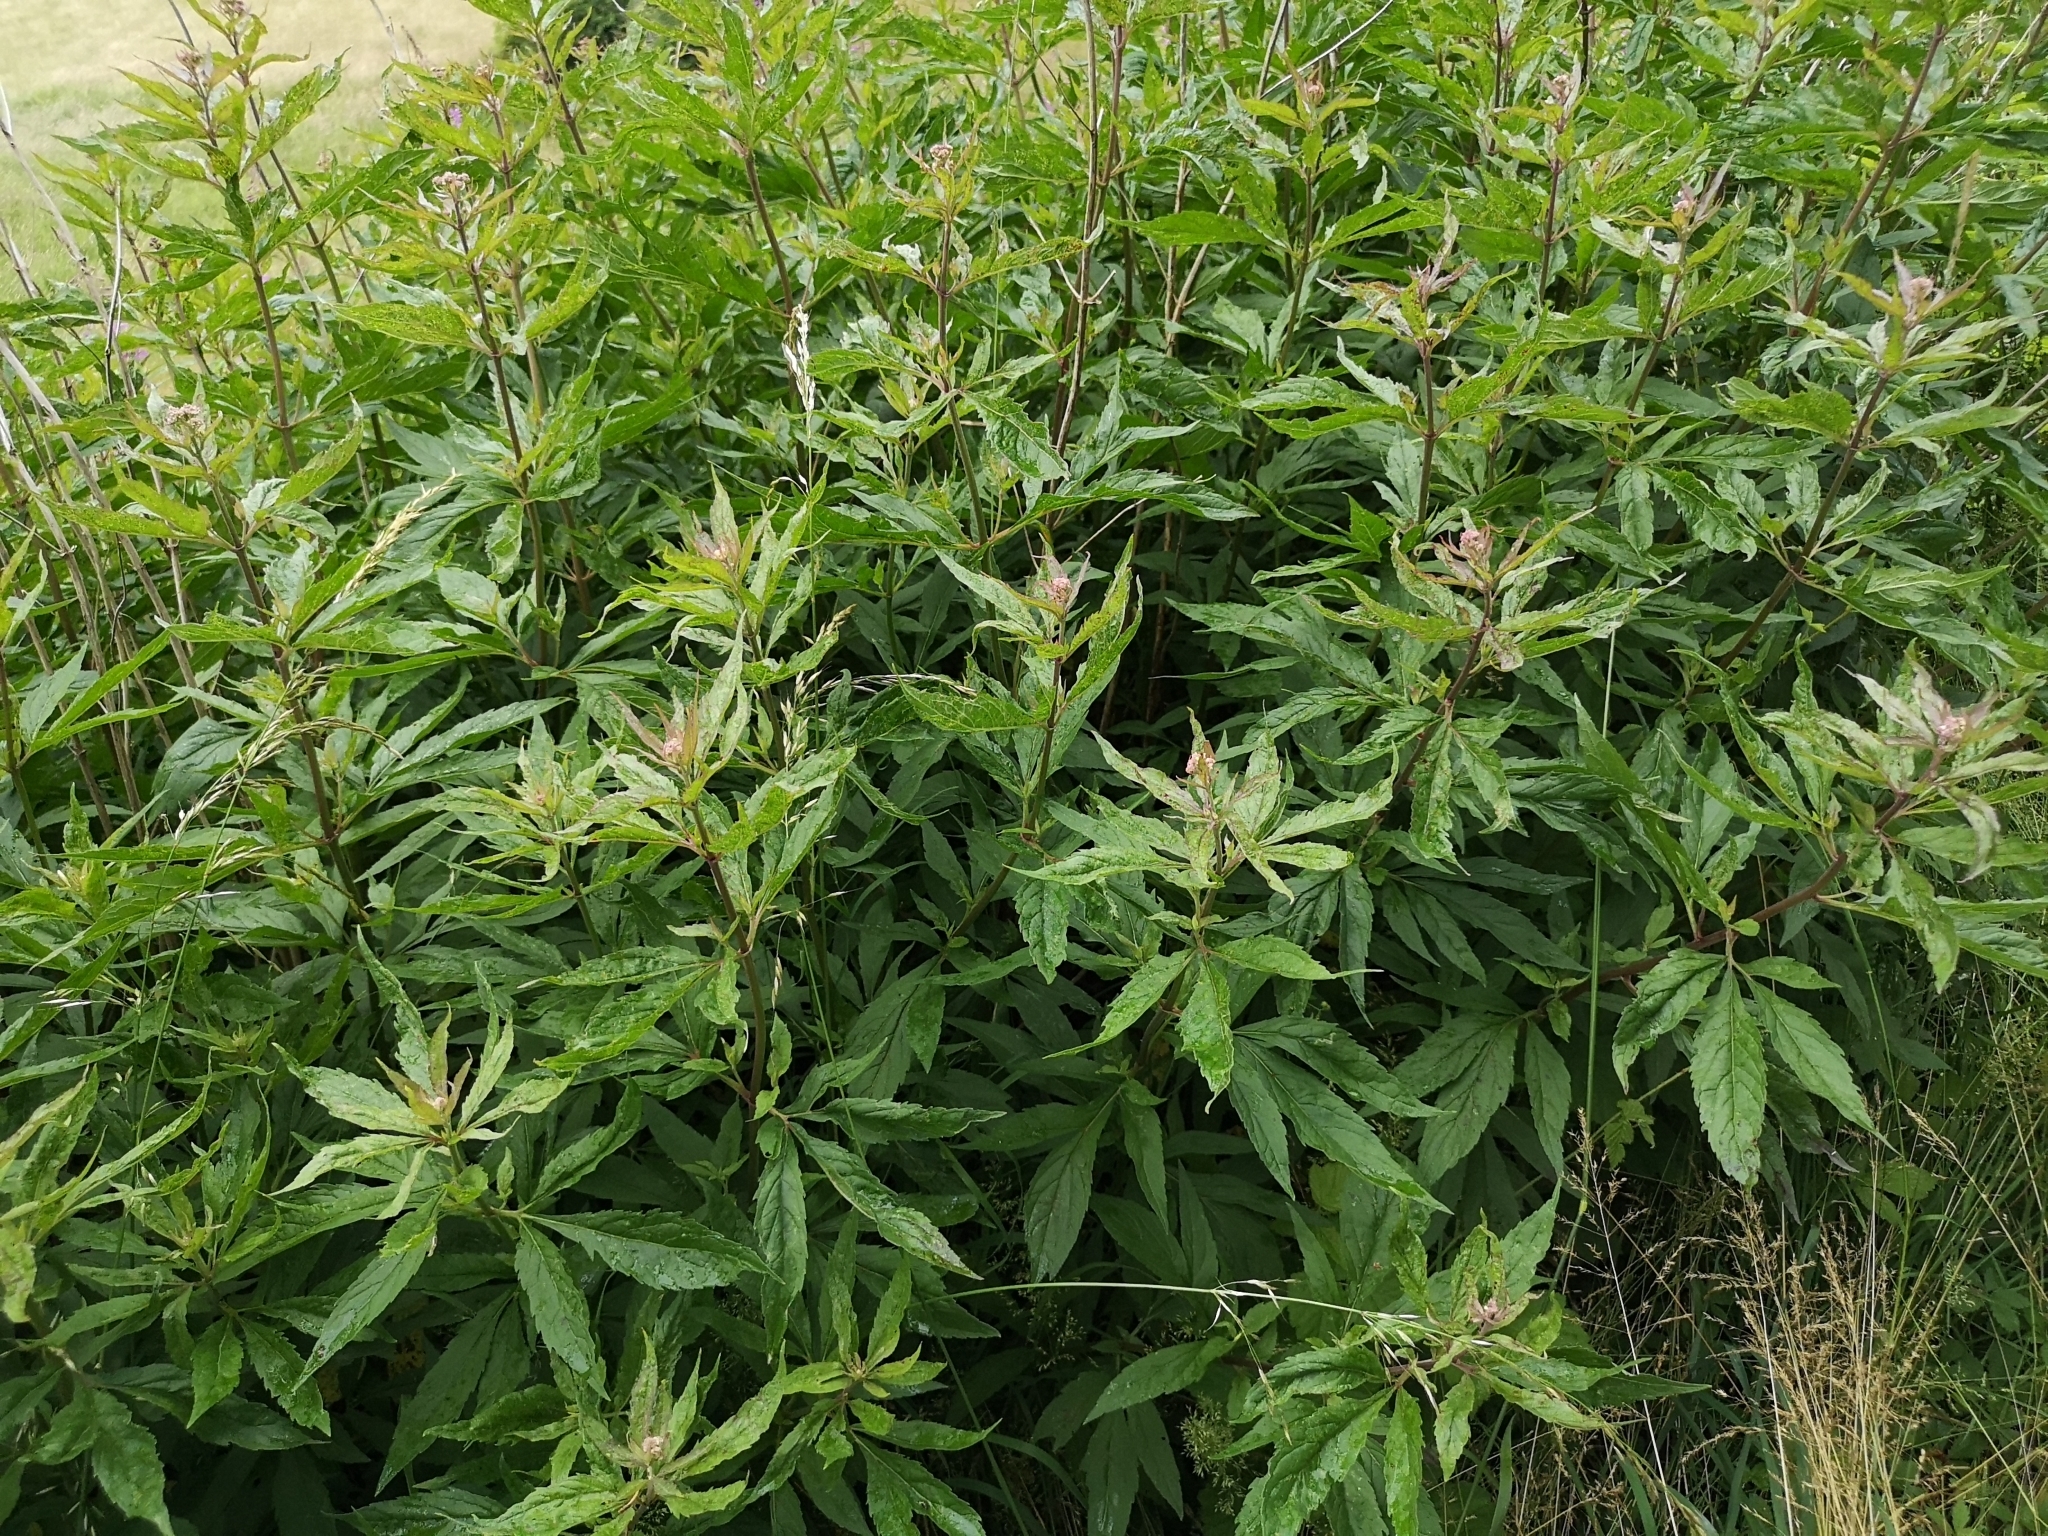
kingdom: Plantae
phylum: Tracheophyta
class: Magnoliopsida
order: Asterales
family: Asteraceae
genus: Eupatorium
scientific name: Eupatorium cannabinum
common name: Hemp-agrimony
